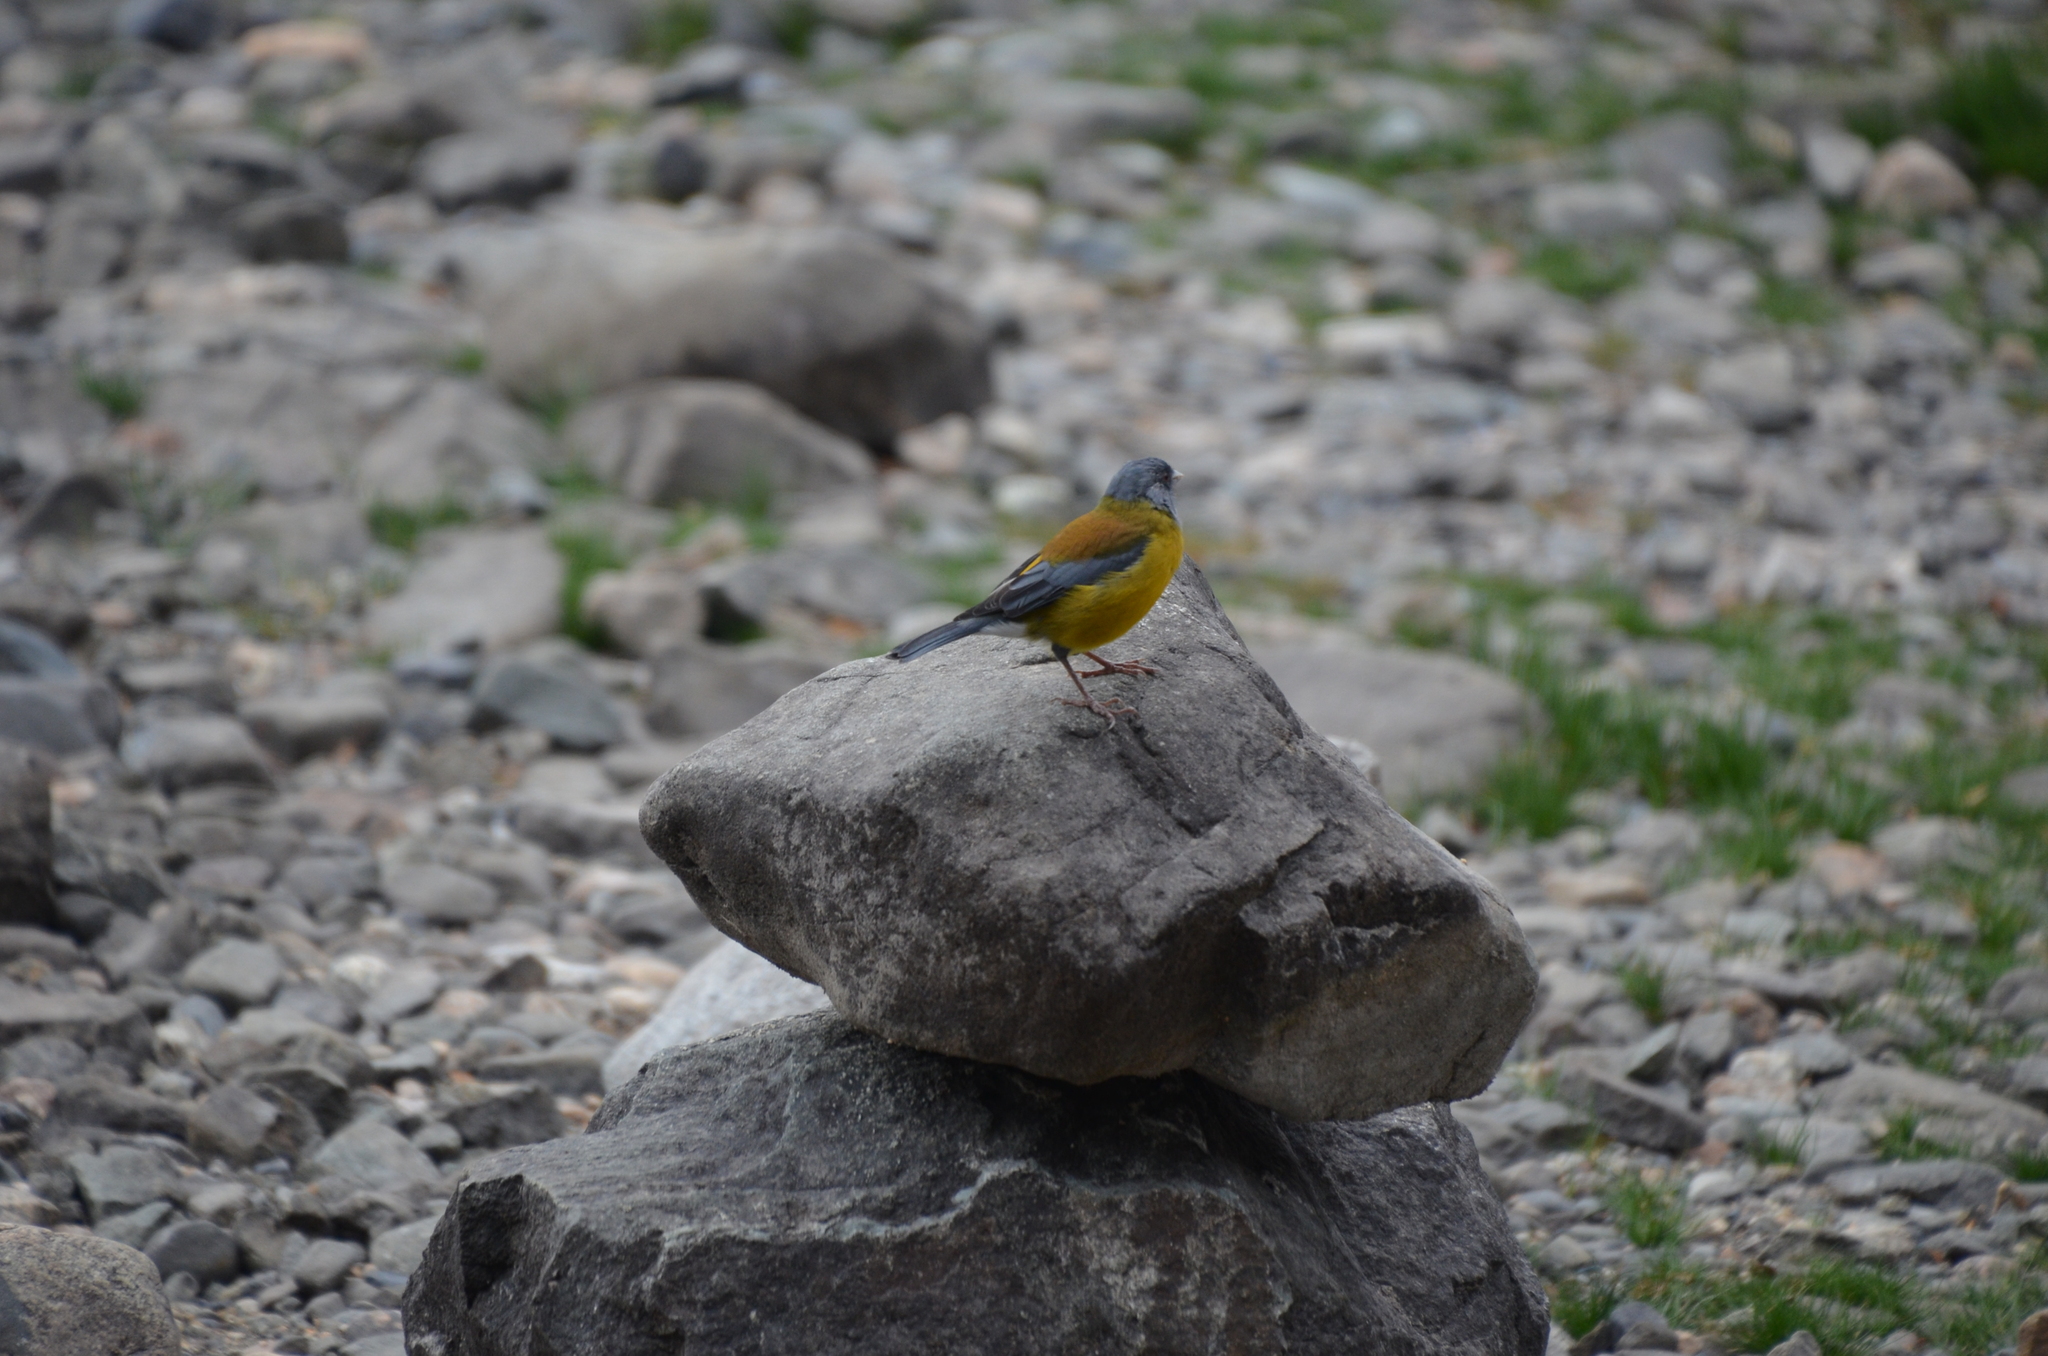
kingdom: Animalia
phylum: Chordata
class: Aves
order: Passeriformes
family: Thraupidae
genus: Phrygilus
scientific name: Phrygilus patagonicus
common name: Patagonian sierra finch
